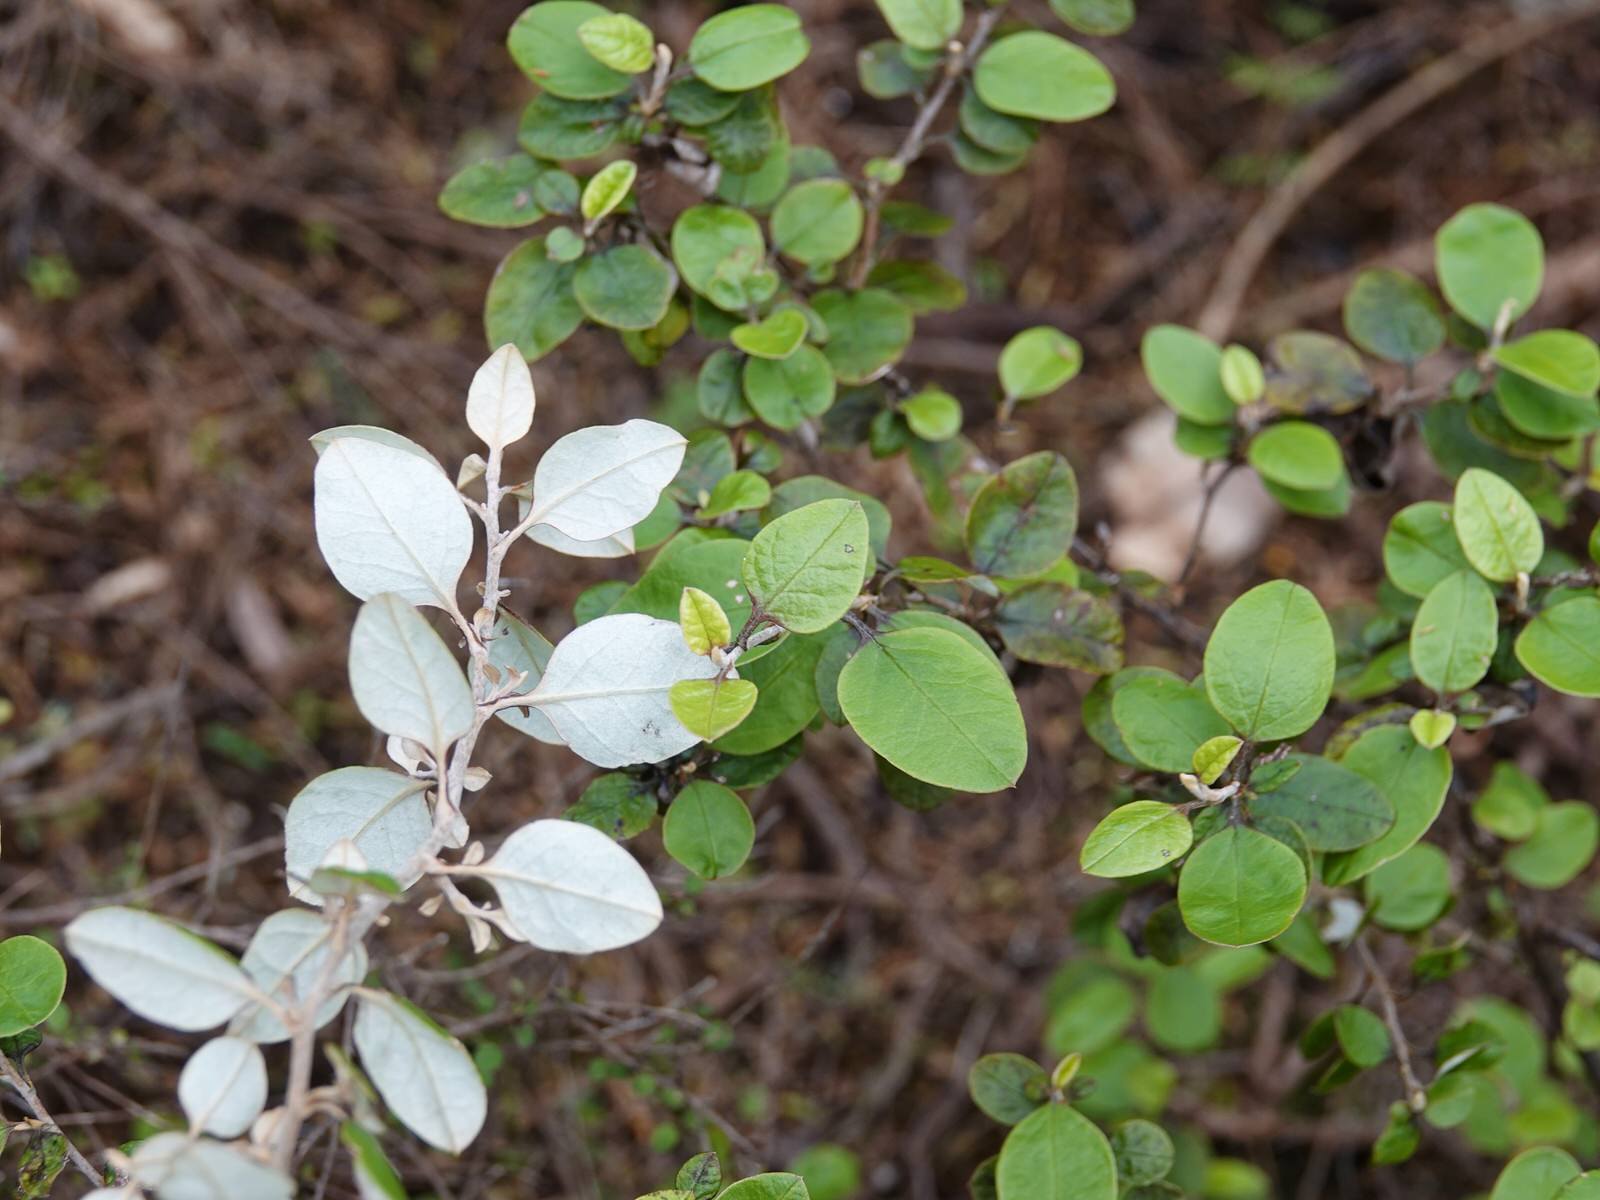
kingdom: Plantae
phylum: Tracheophyta
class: Magnoliopsida
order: Asterales
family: Asteraceae
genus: Ozothamnus
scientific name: Ozothamnus glomeratus
